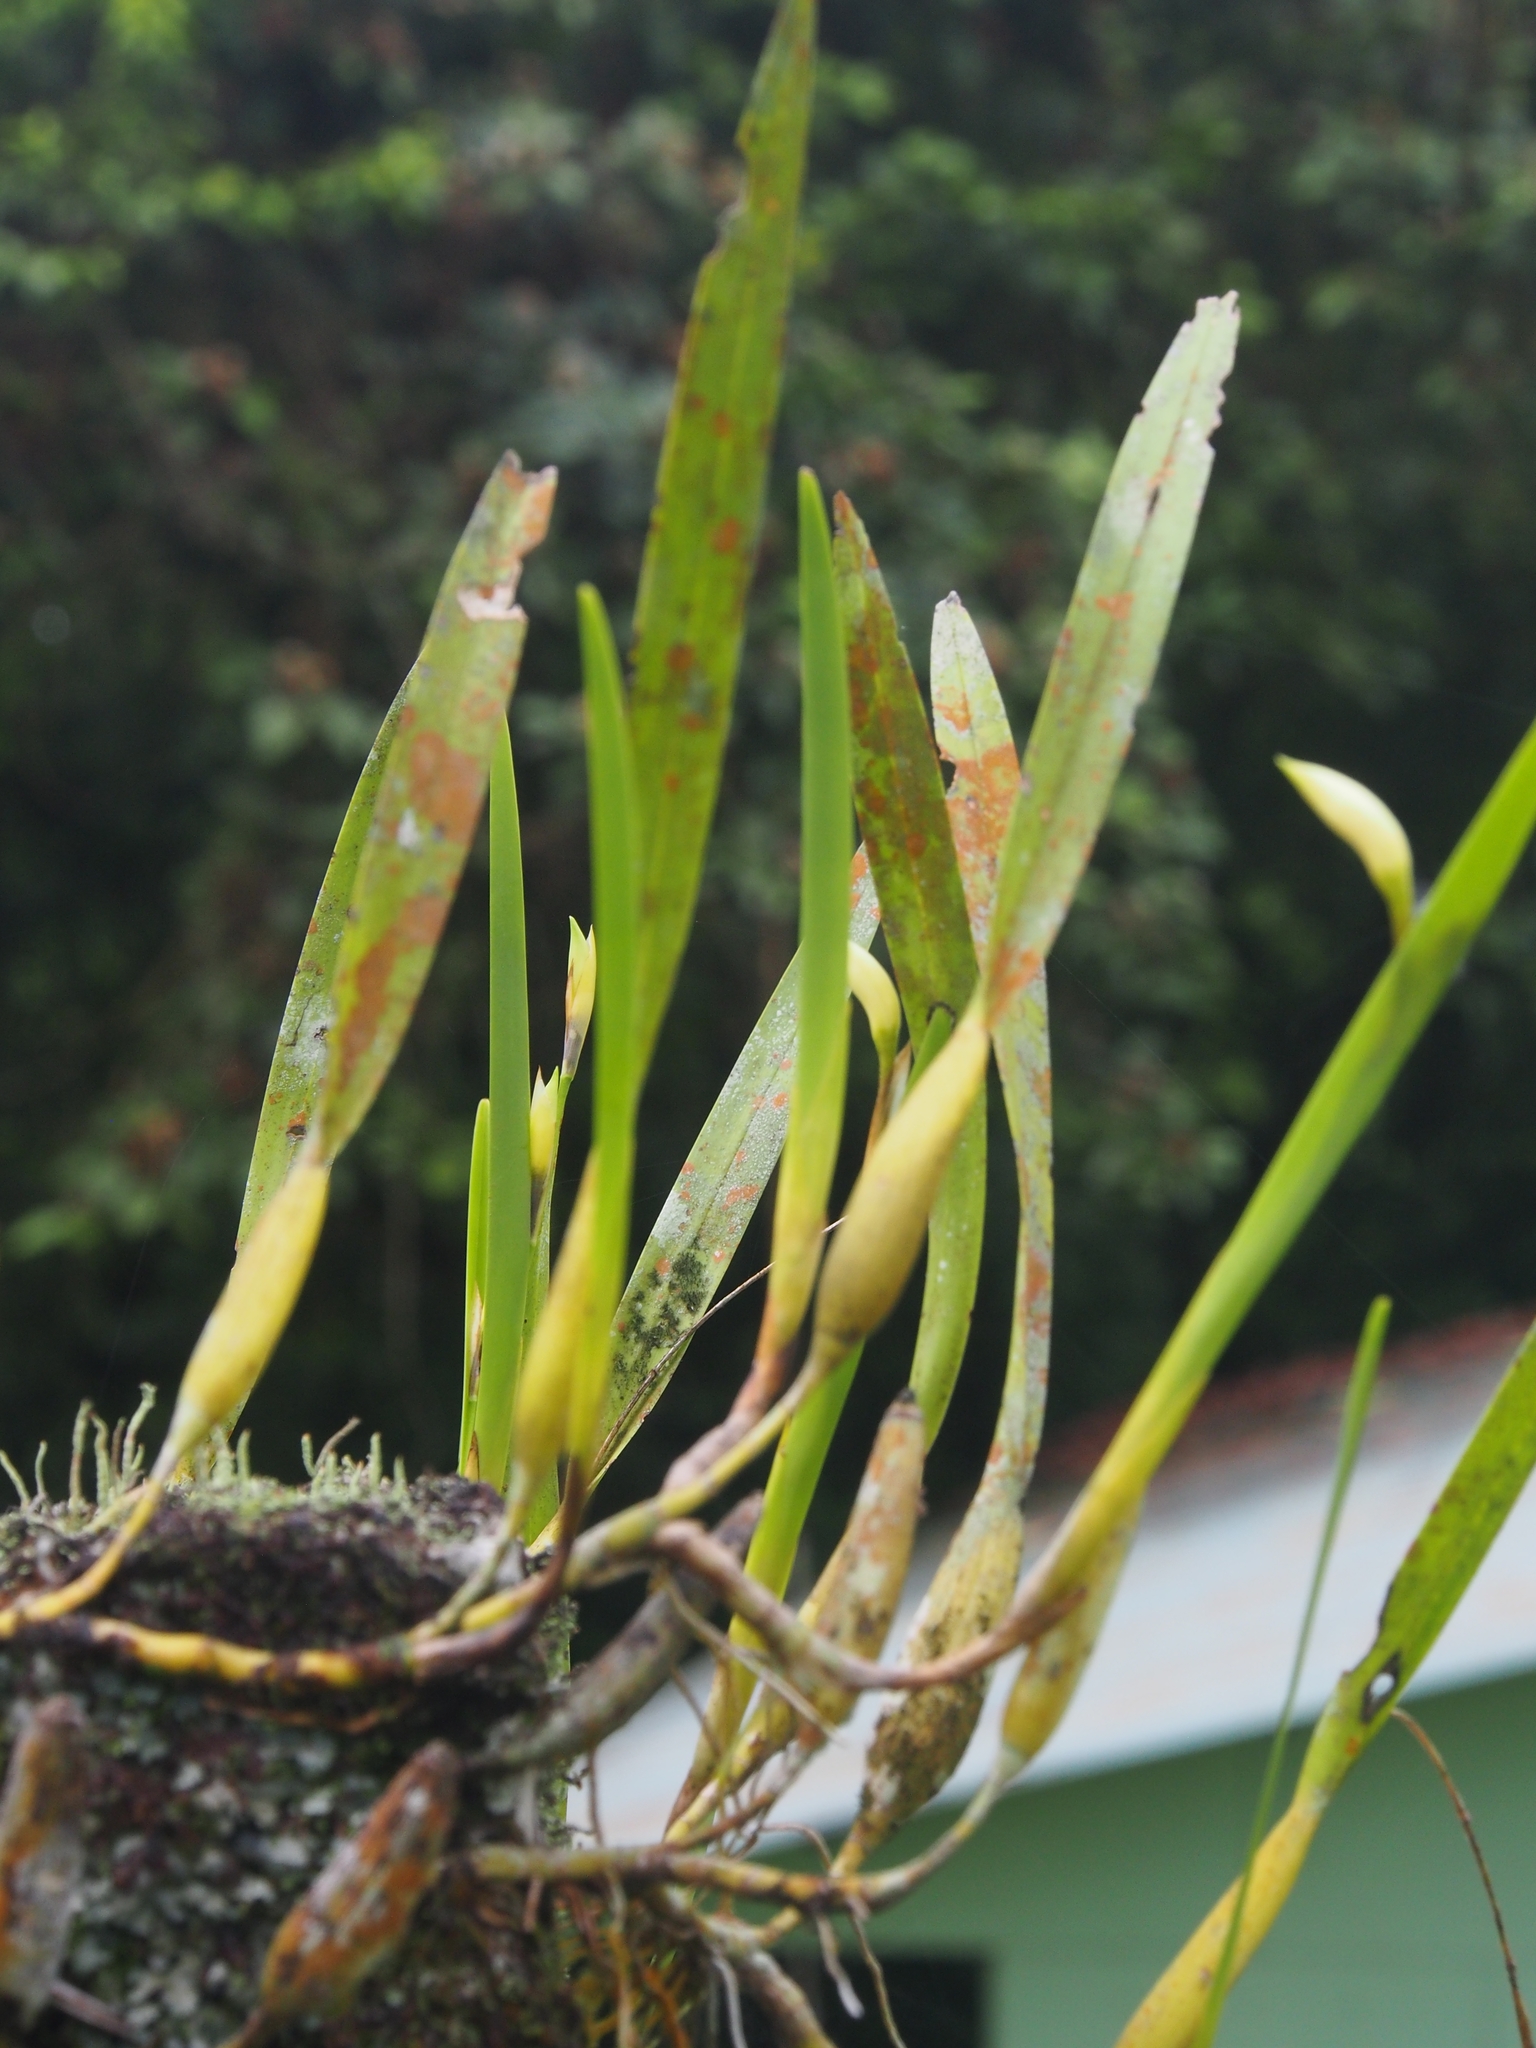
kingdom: Plantae
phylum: Tracheophyta
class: Liliopsida
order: Asparagales
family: Orchidaceae
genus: Nidema
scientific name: Nidema boothii
